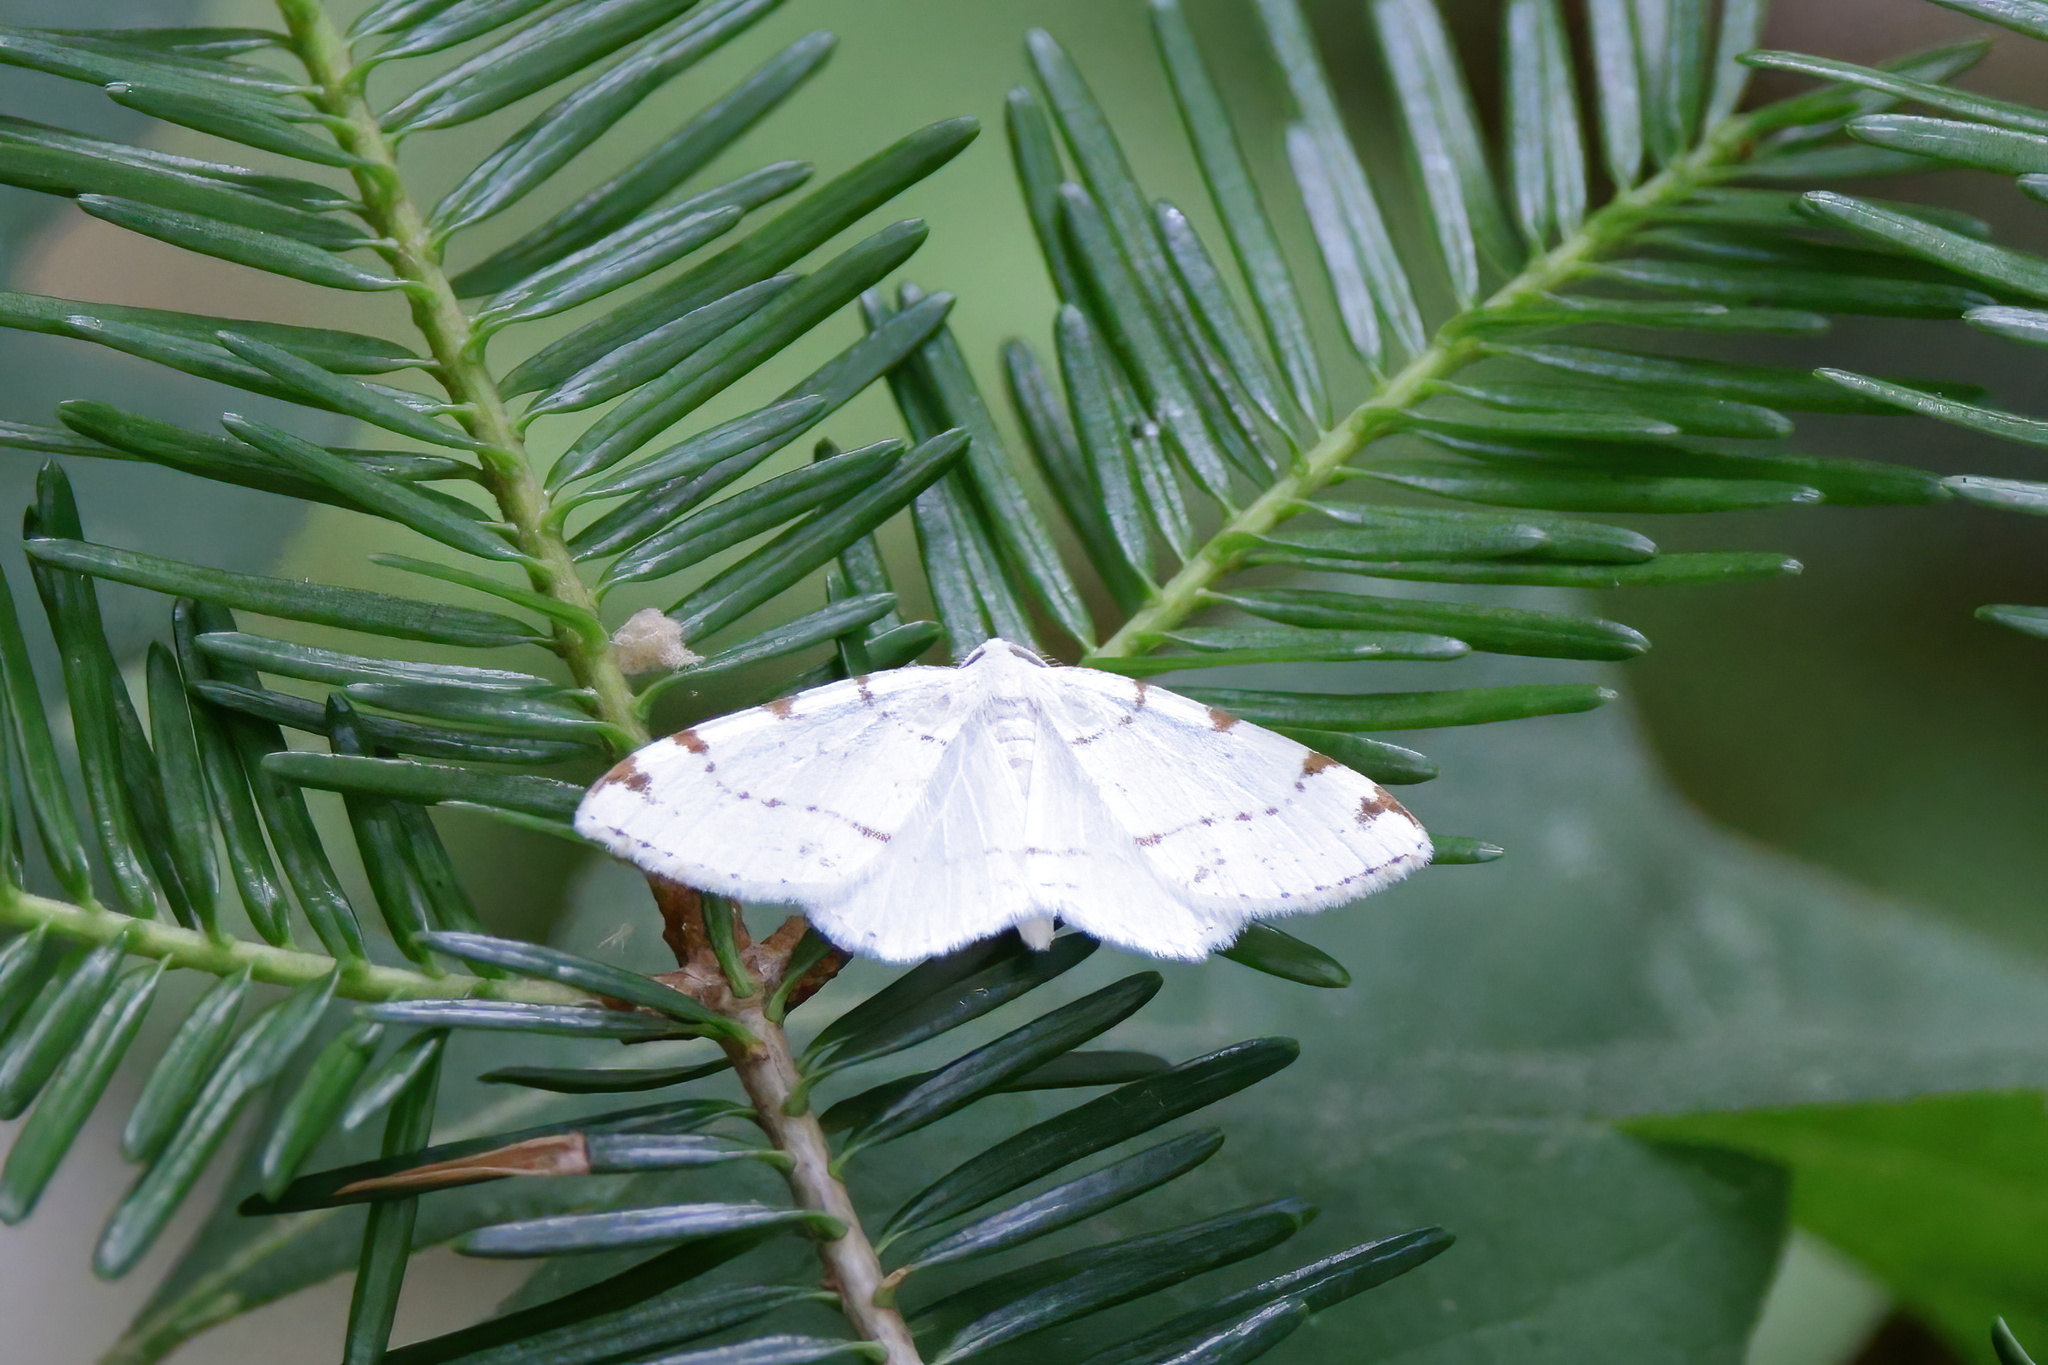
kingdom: Animalia
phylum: Arthropoda
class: Insecta
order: Lepidoptera
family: Geometridae
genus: Macaria
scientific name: Macaria pustularia
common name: Lesser maple spanworm moth
